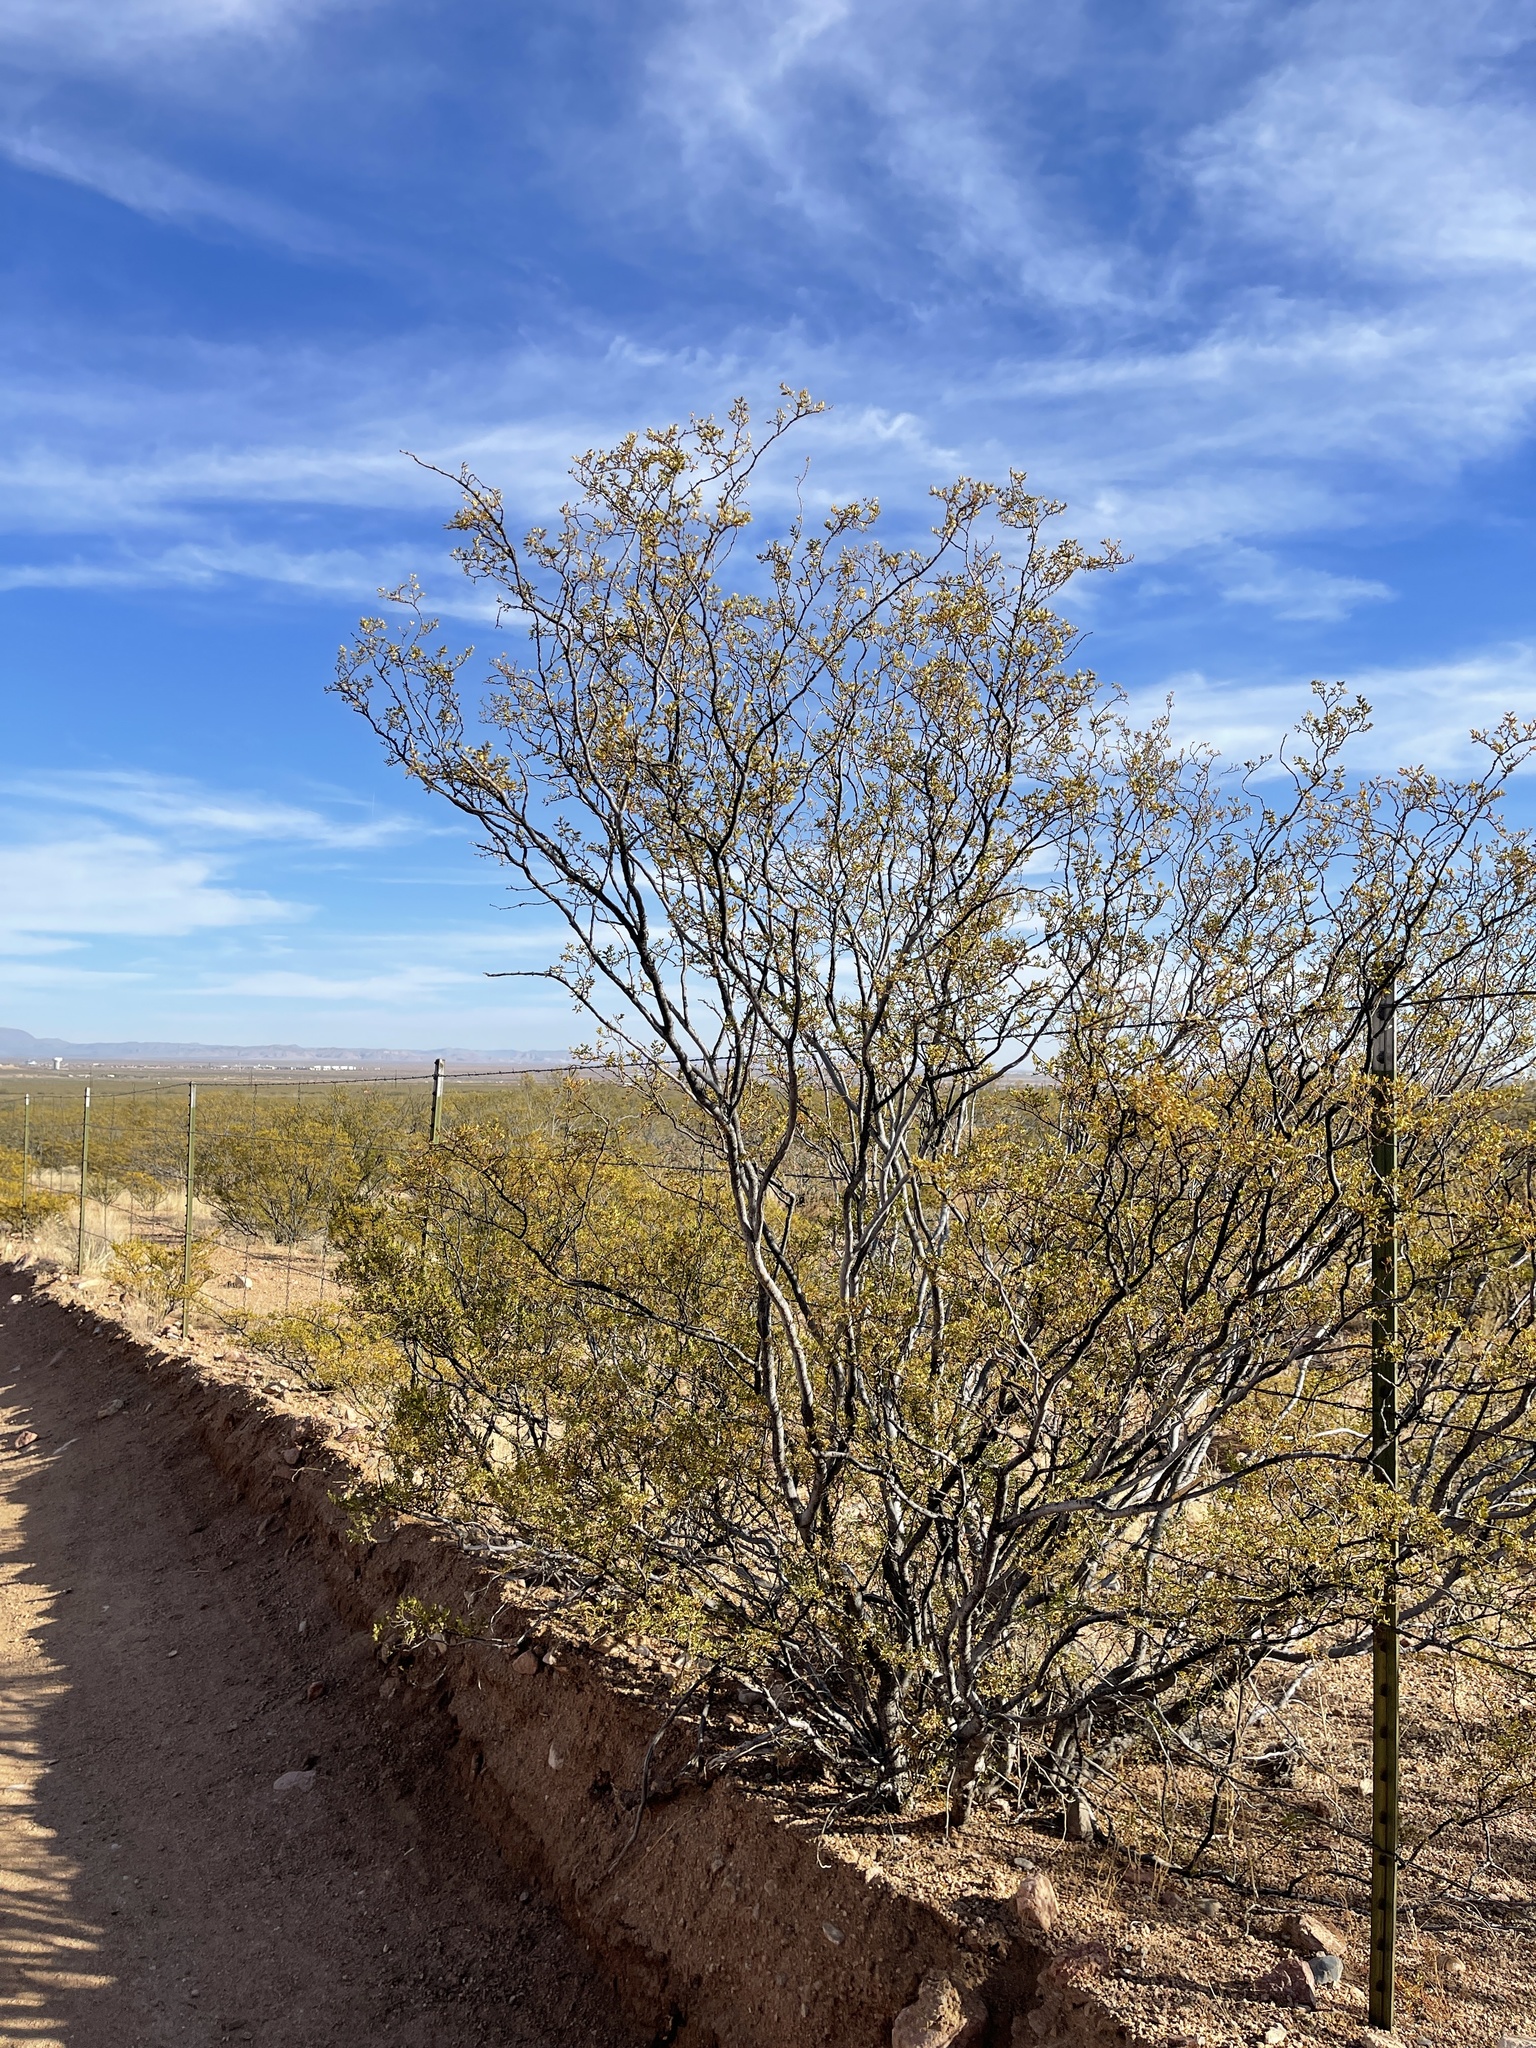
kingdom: Plantae
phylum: Tracheophyta
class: Magnoliopsida
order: Zygophyllales
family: Zygophyllaceae
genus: Larrea
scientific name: Larrea tridentata
